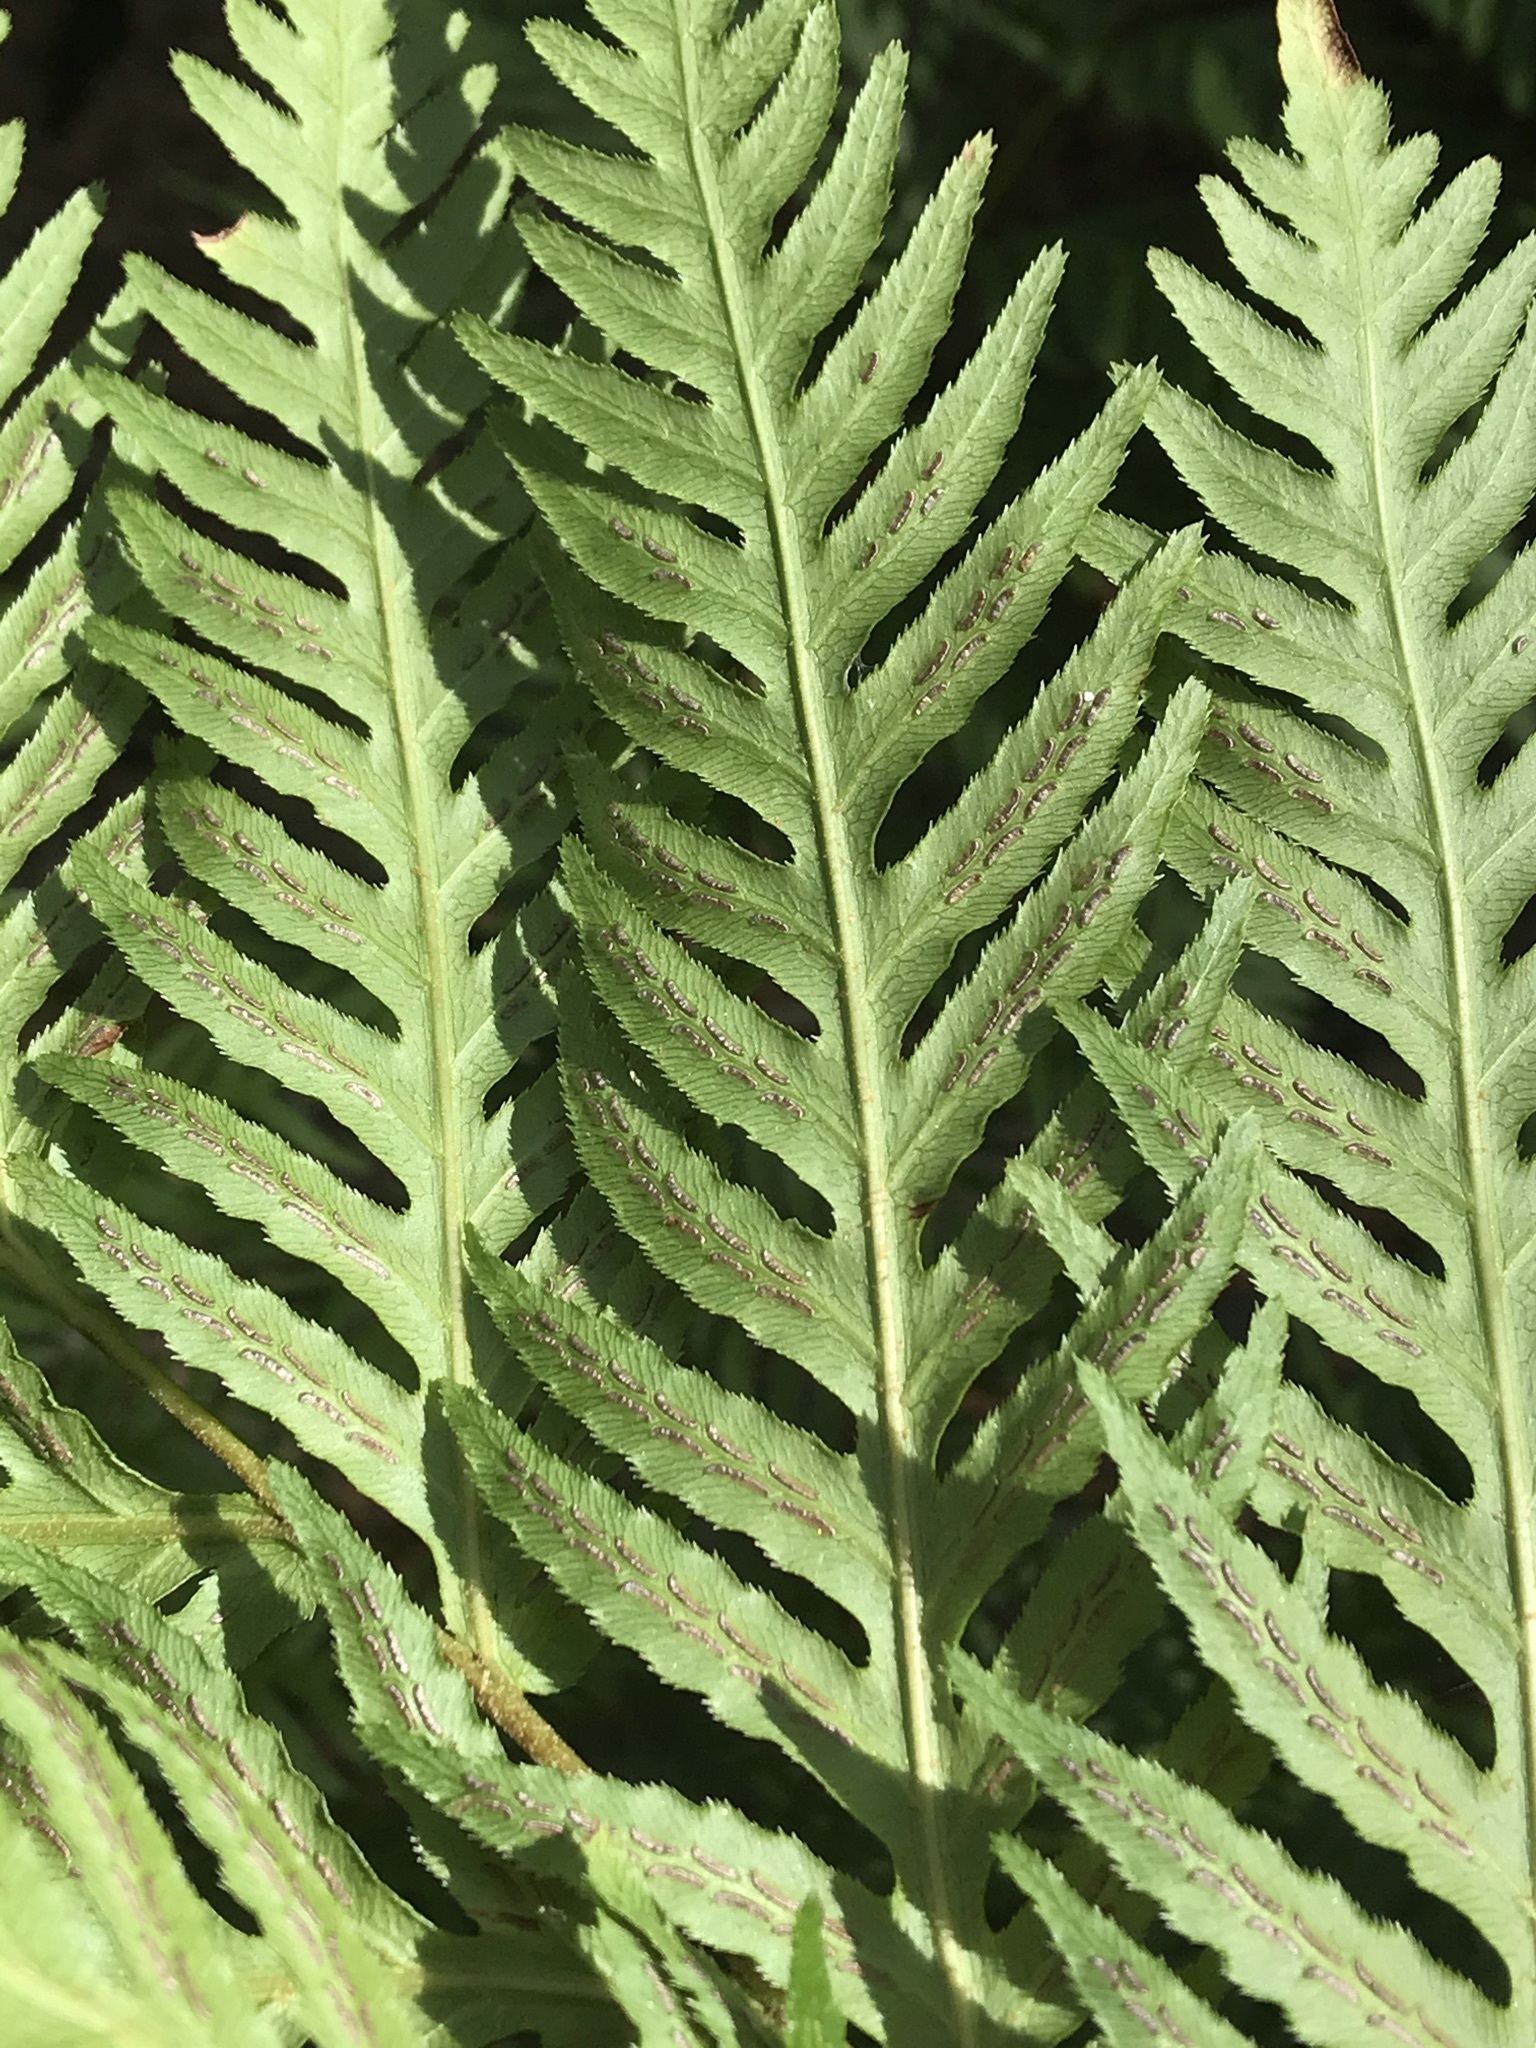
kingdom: Plantae
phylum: Tracheophyta
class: Polypodiopsida
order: Polypodiales
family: Blechnaceae
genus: Woodwardia
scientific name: Woodwardia fimbriata
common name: Giant chain fern
